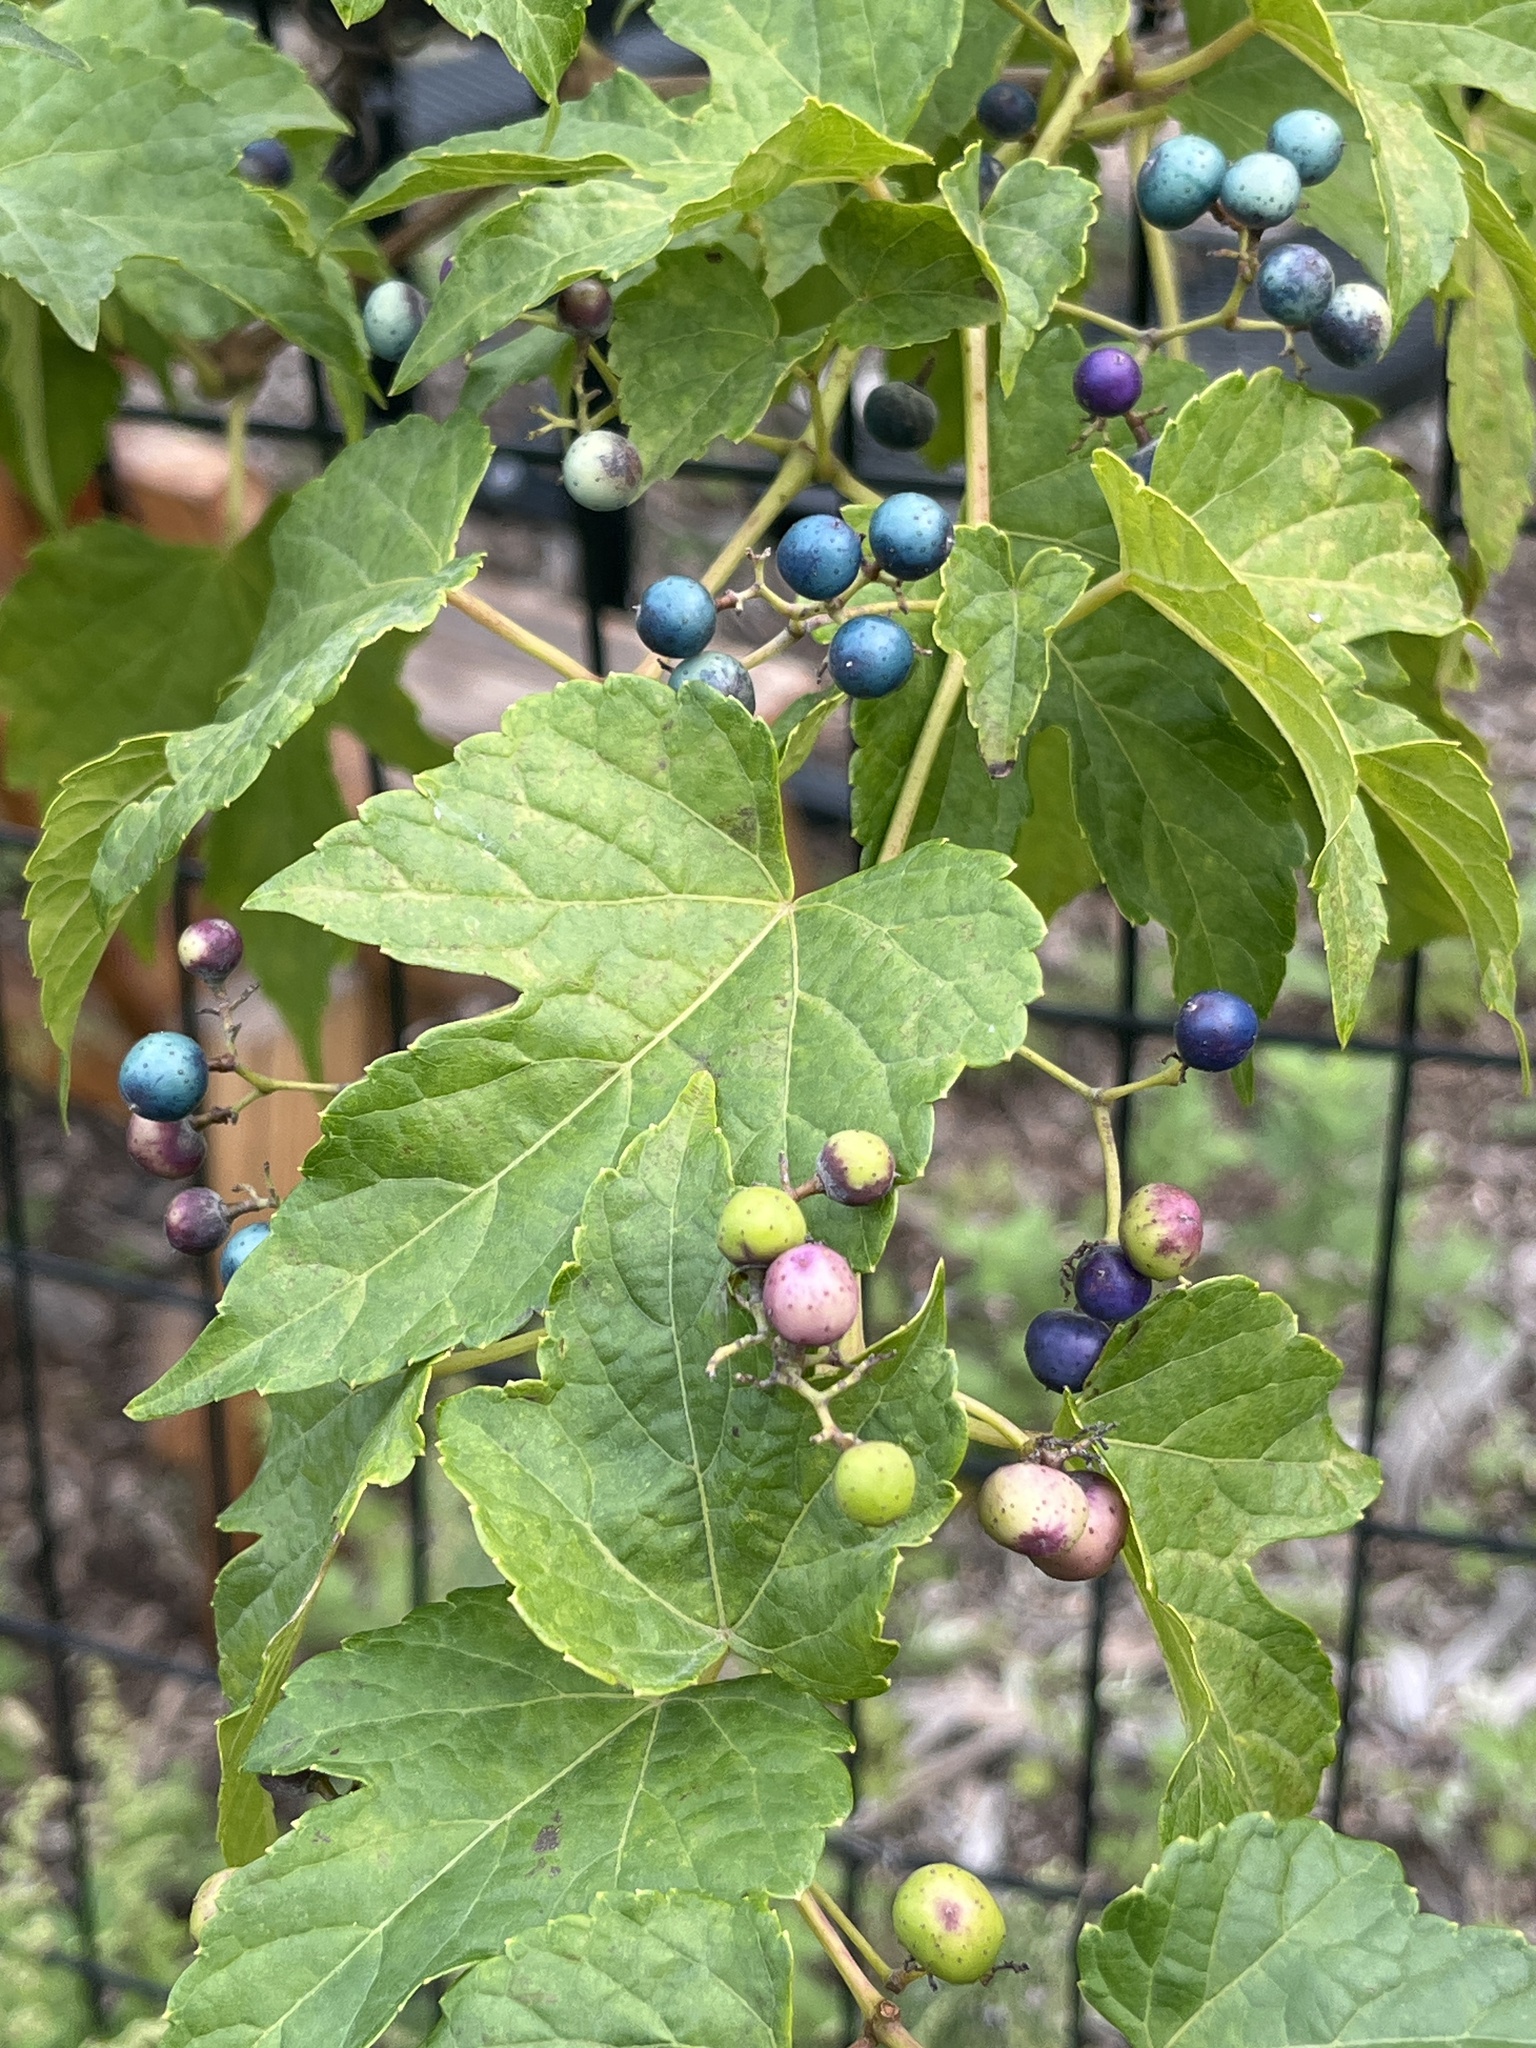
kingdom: Plantae
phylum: Tracheophyta
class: Magnoliopsida
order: Vitales
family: Vitaceae
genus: Ampelopsis
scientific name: Ampelopsis glandulosa
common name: Amur peppervine
